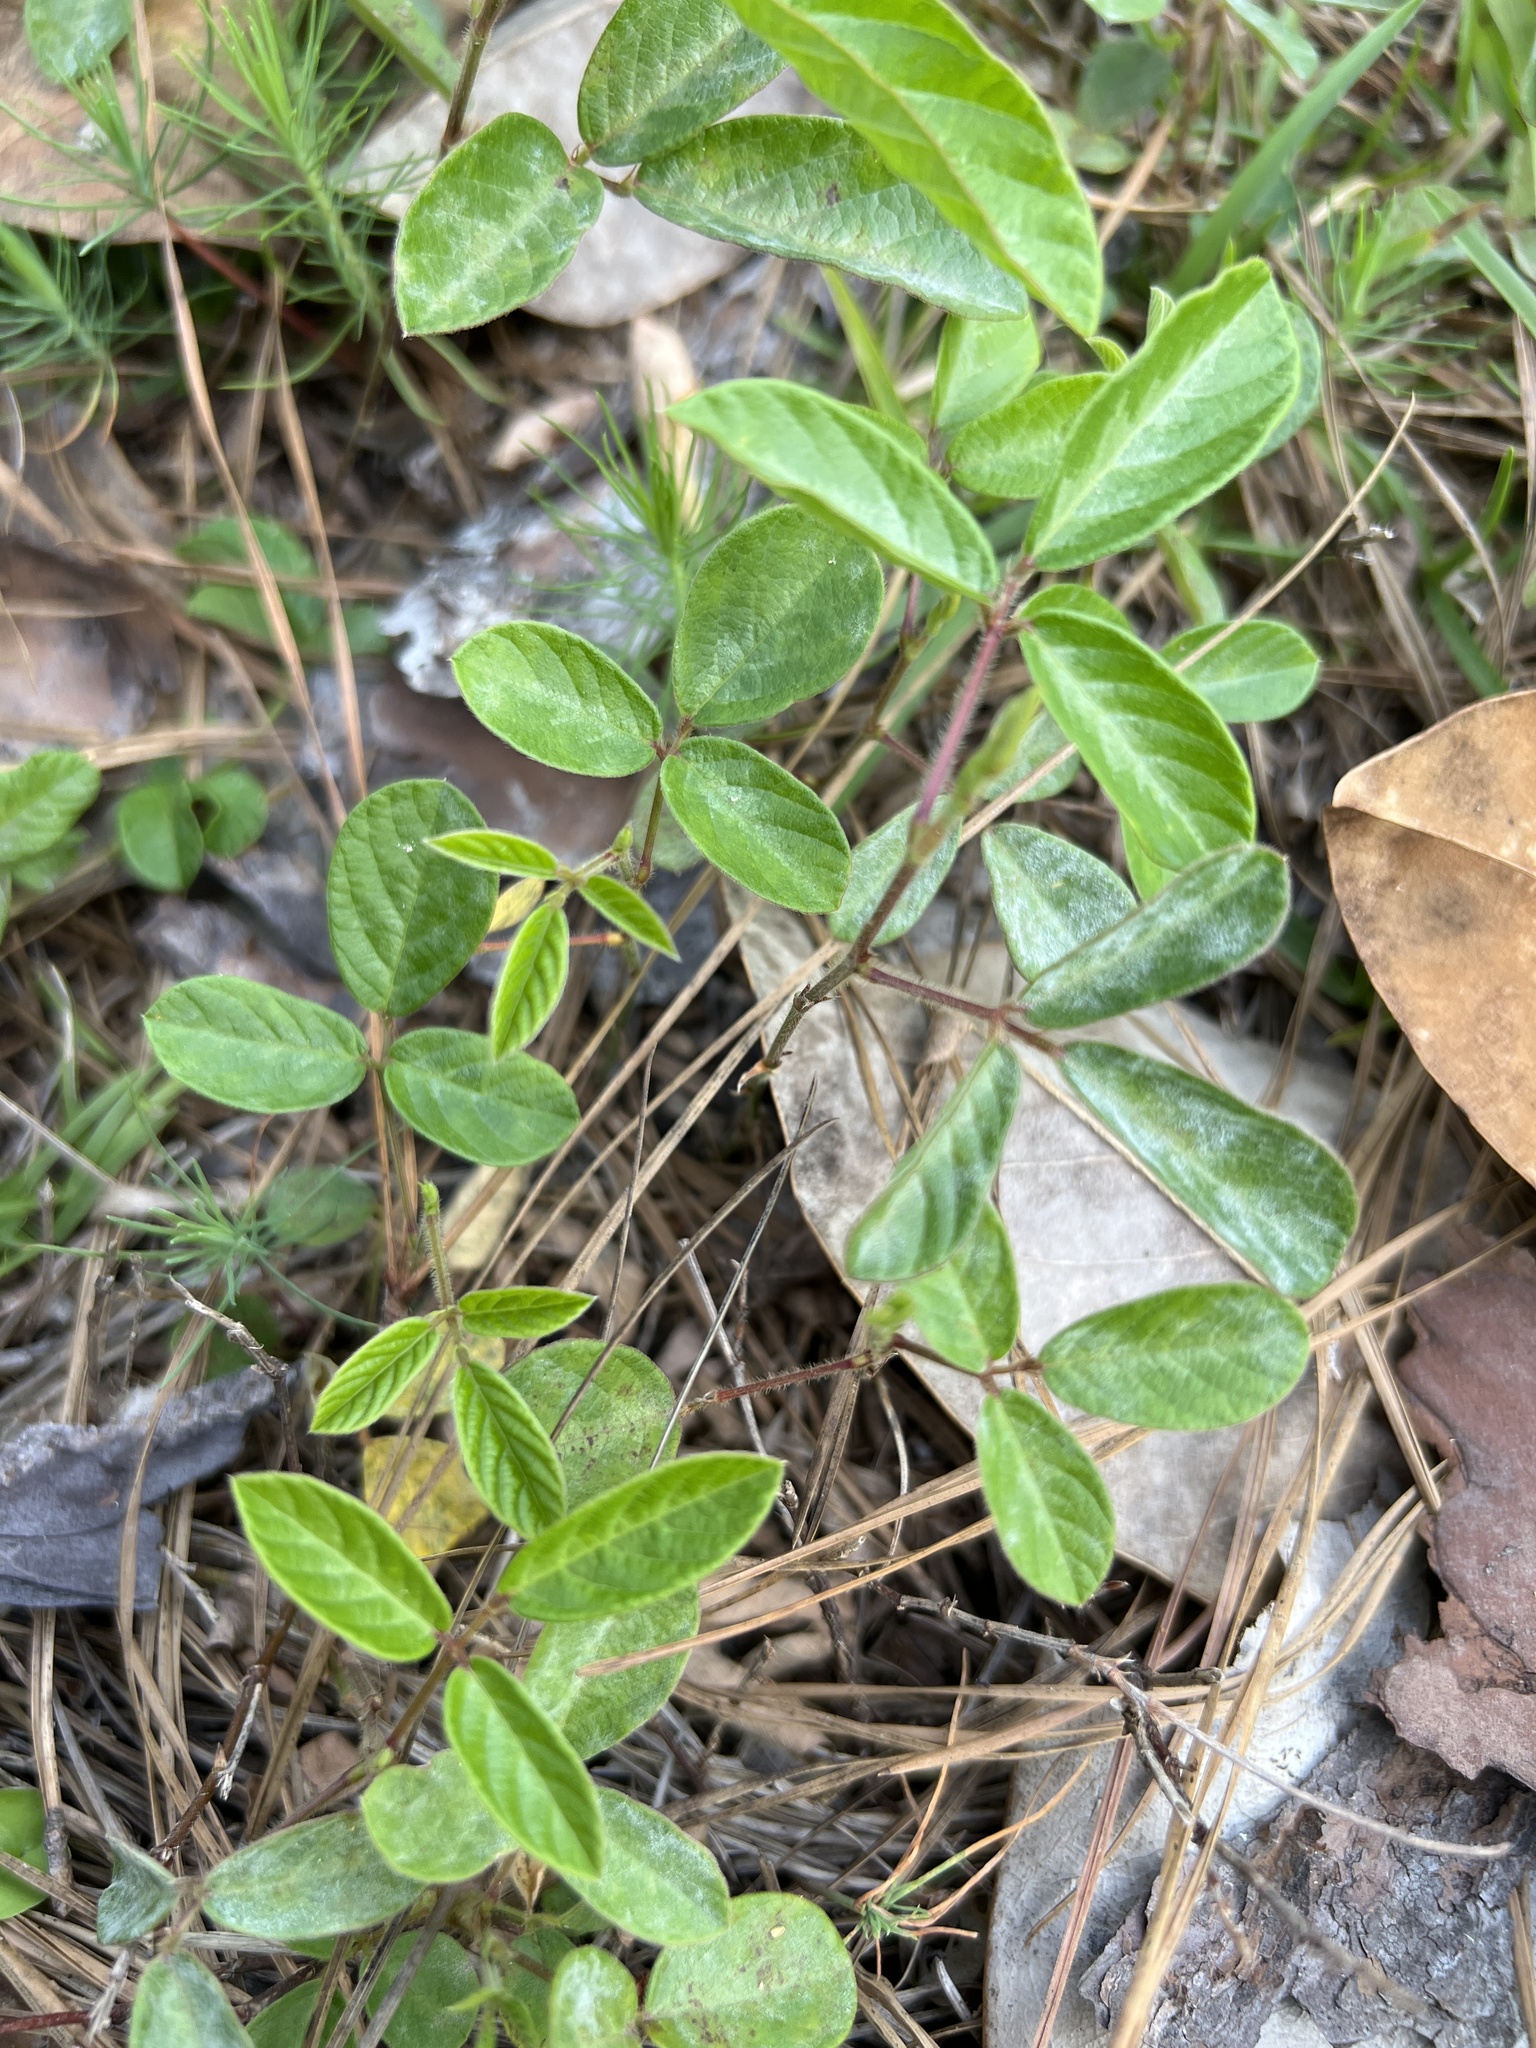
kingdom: Plantae
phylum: Tracheophyta
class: Magnoliopsida
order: Fabales
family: Fabaceae
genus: Desmodium
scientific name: Desmodium incanum
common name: Tickclover
